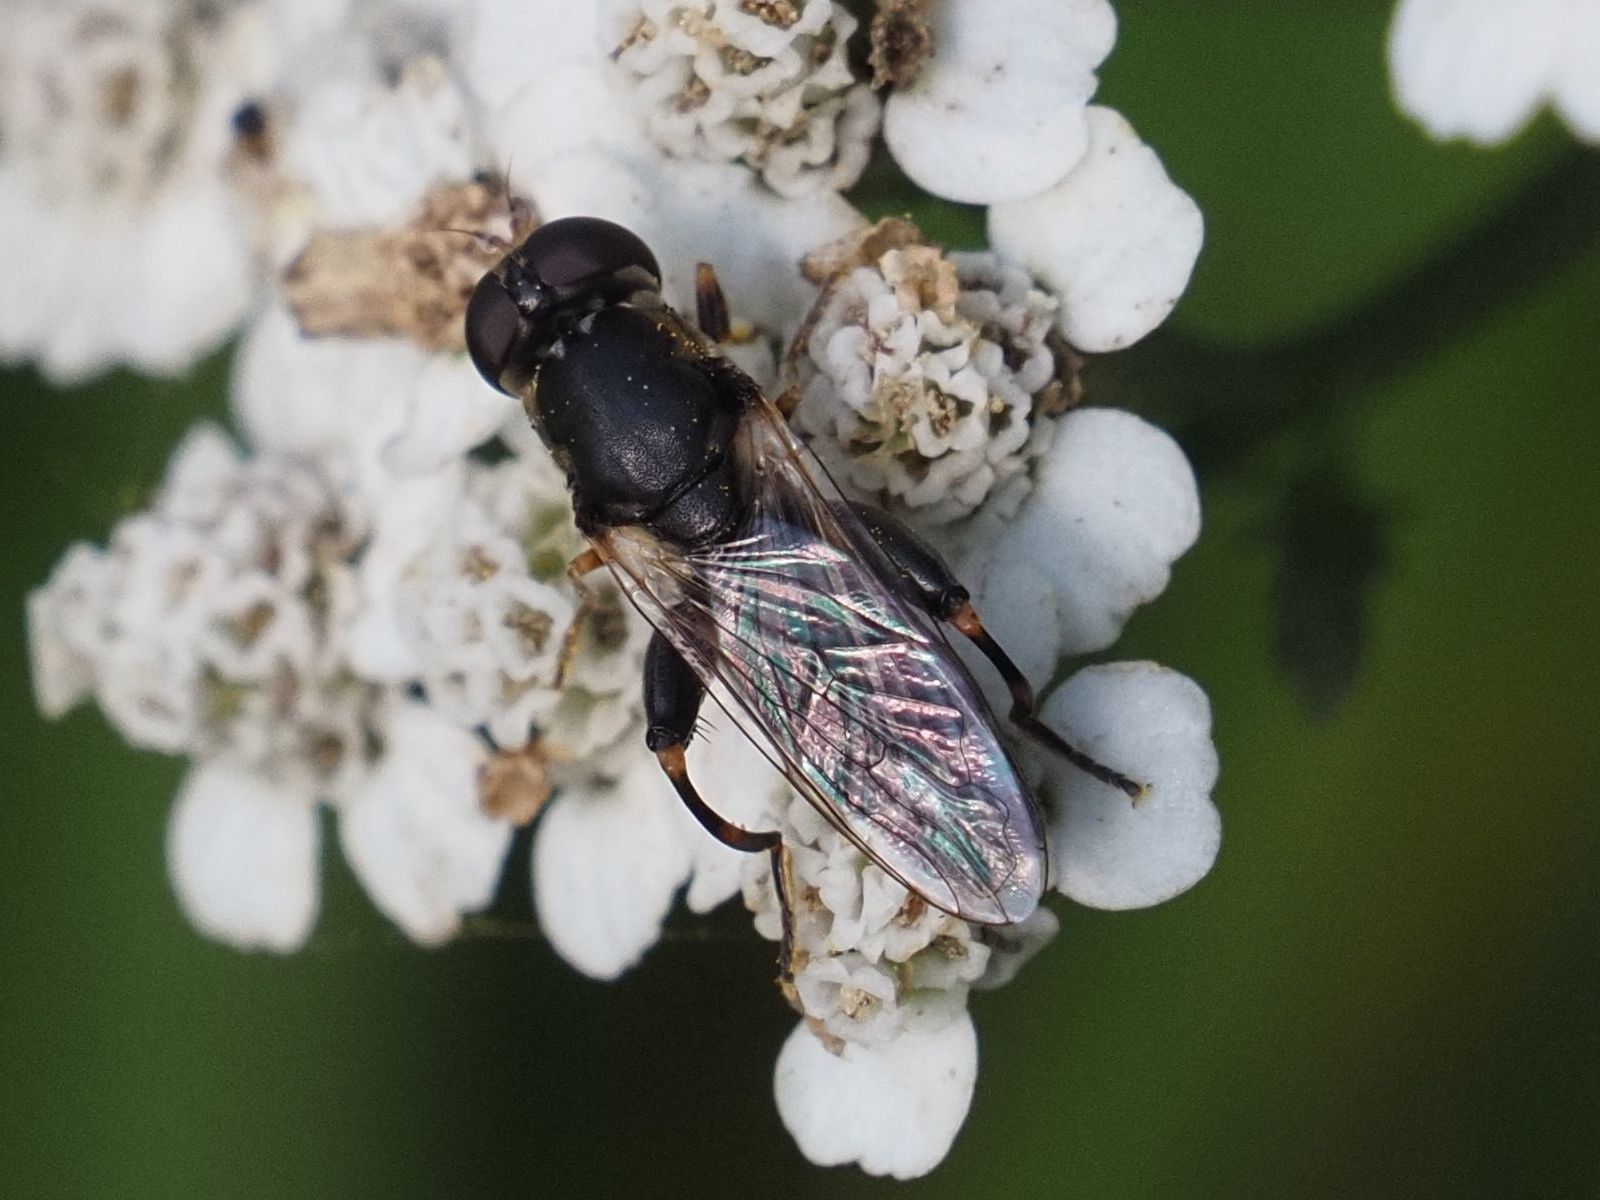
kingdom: Animalia
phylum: Arthropoda
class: Insecta
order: Diptera
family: Syrphidae
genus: Syritta
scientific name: Syritta pipiens
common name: Hover fly
